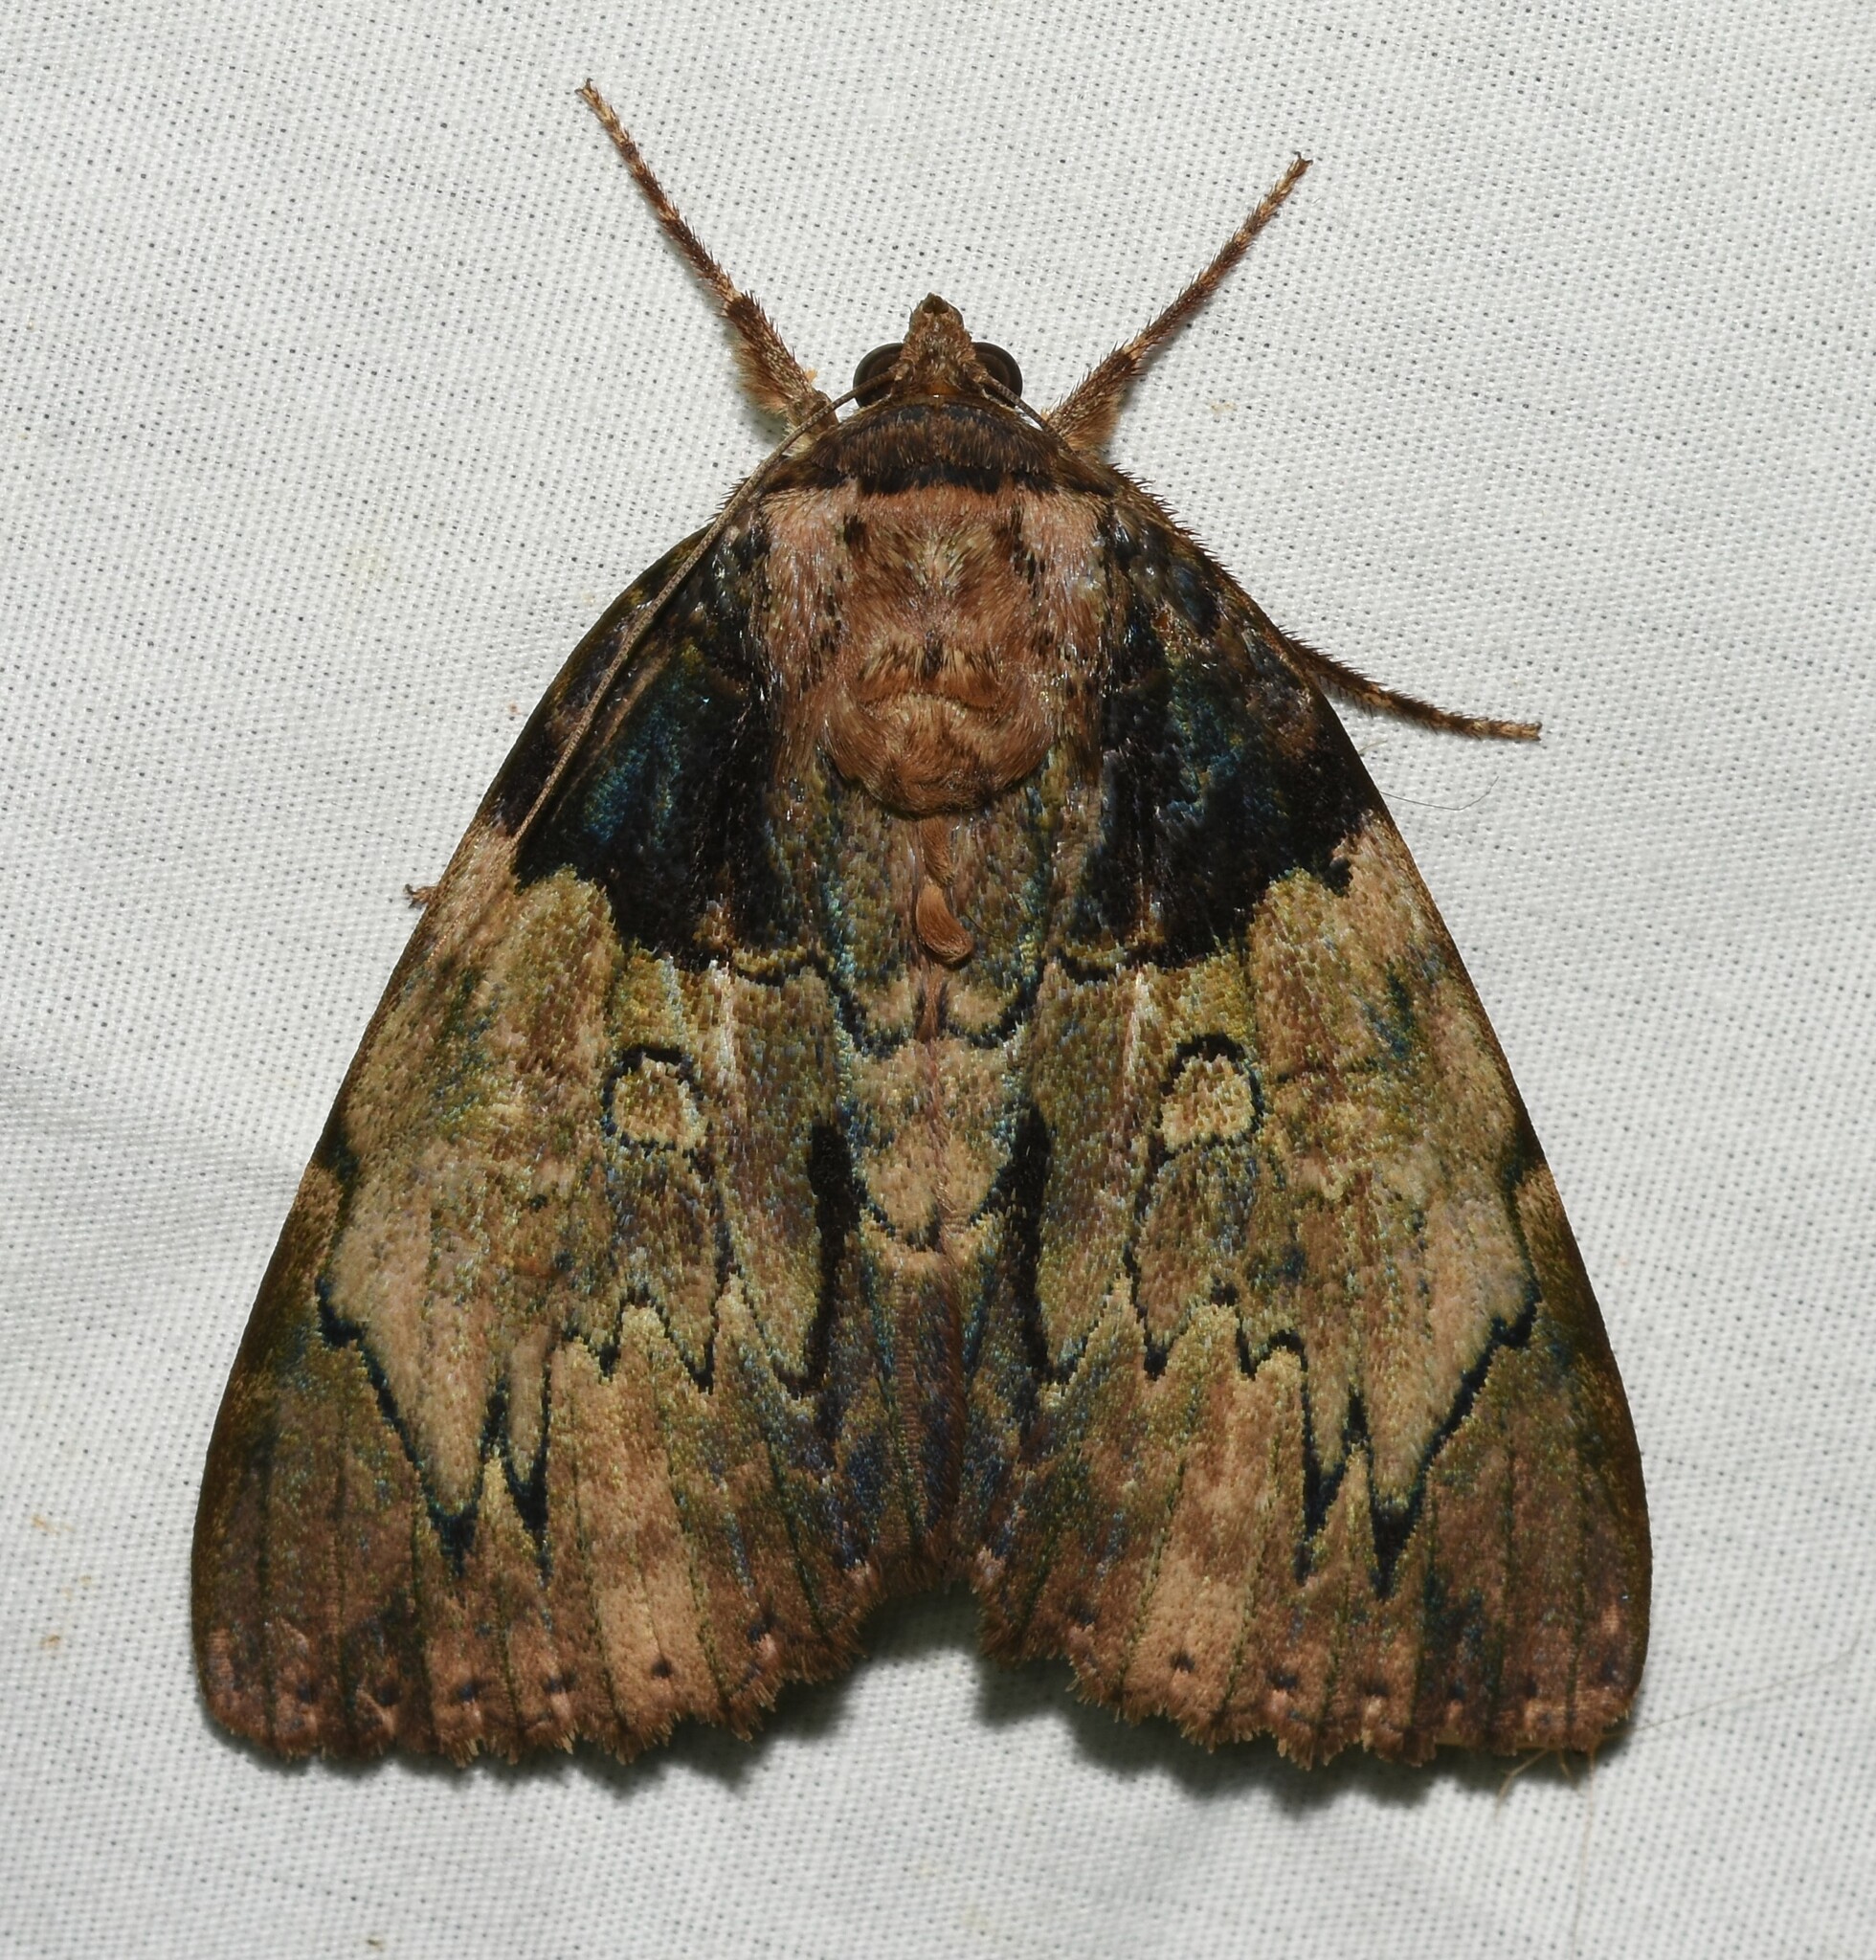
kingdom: Animalia
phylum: Arthropoda
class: Insecta
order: Lepidoptera
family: Erebidae
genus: Catocala
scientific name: Catocala nebulosa
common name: Clouded underwing
